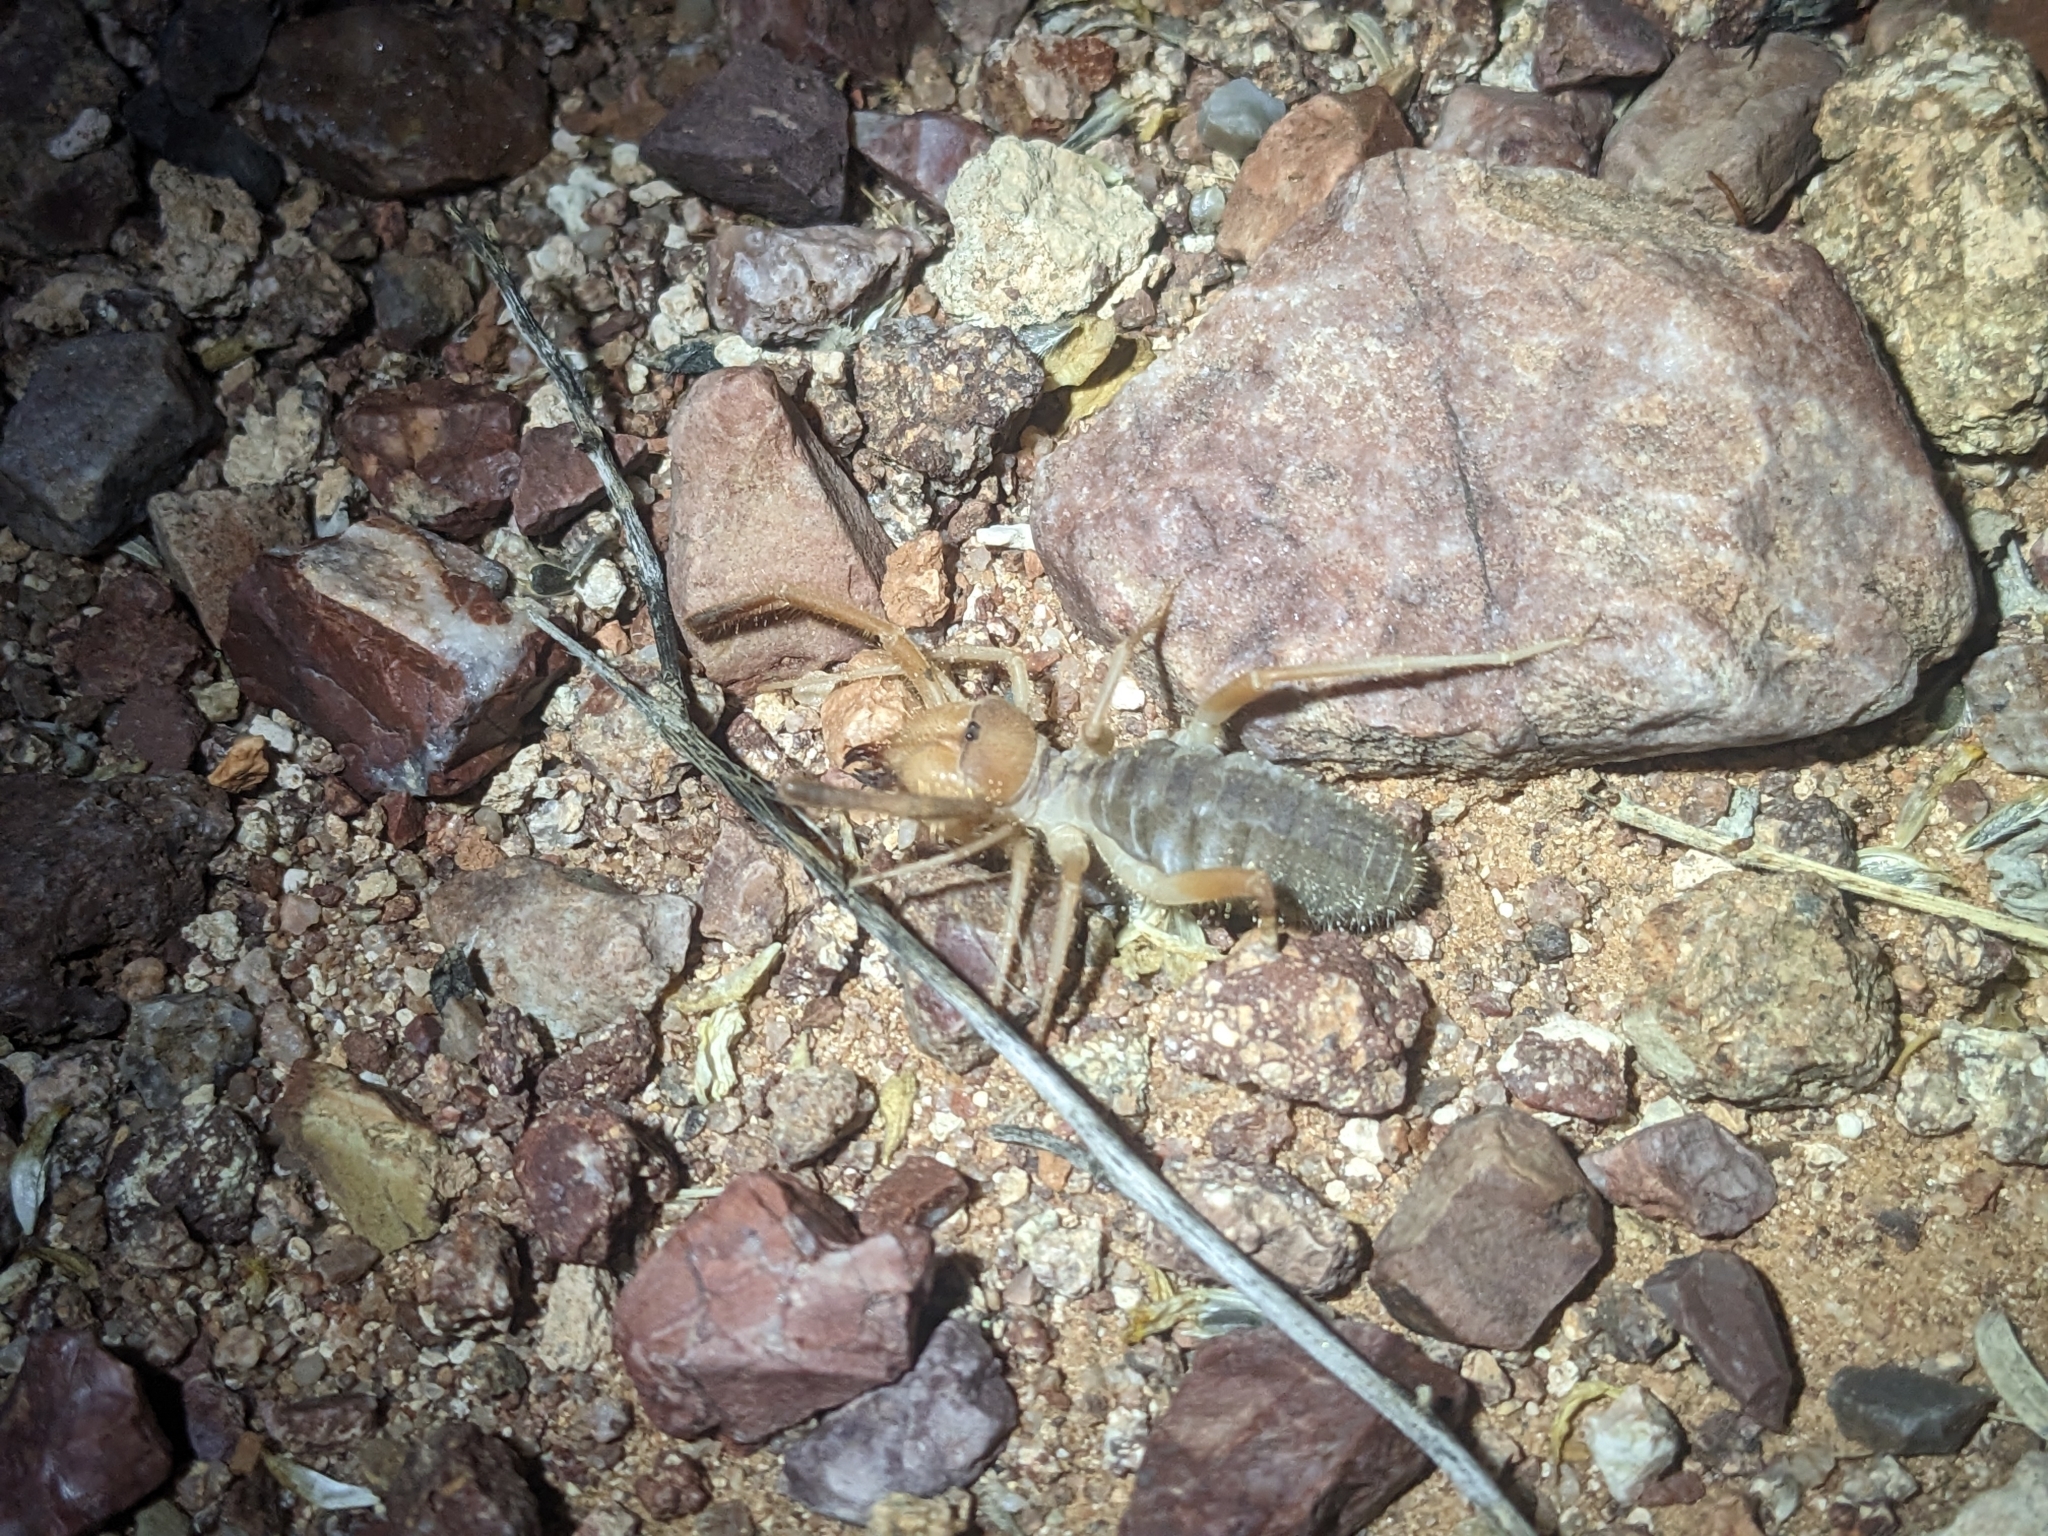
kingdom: Animalia
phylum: Arthropoda
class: Arachnida
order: Solifugae
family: Eremobatidae
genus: Eremocosta
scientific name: Eremocosta striata
